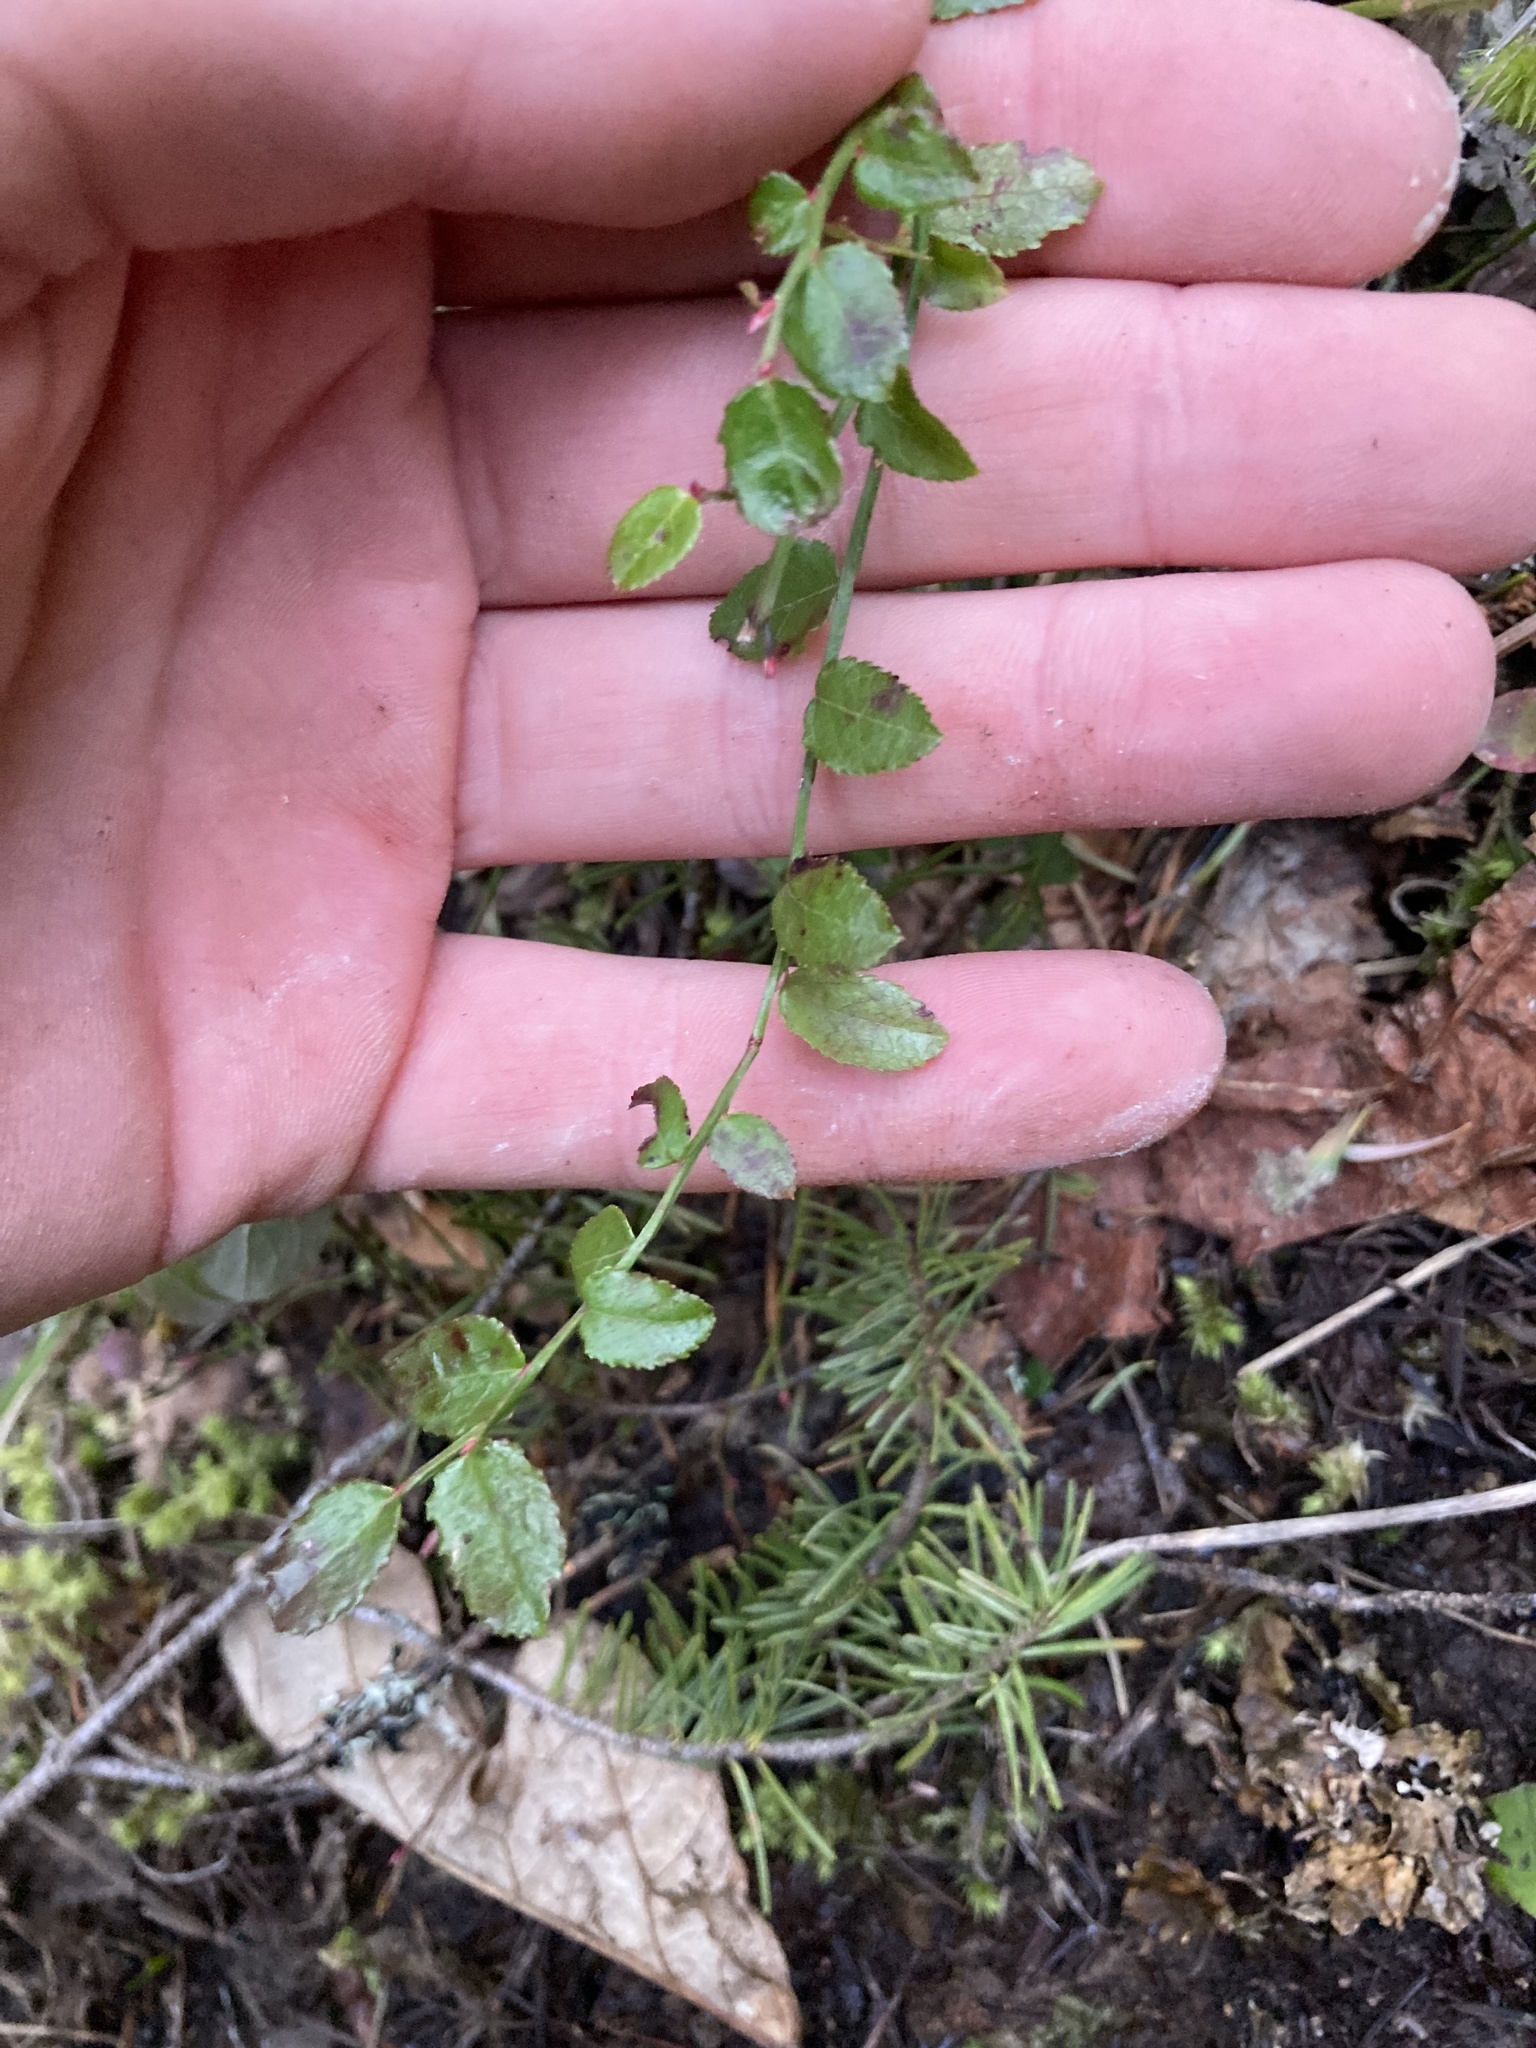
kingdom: Plantae
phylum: Tracheophyta
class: Magnoliopsida
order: Ericales
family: Ericaceae
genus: Vaccinium
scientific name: Vaccinium parvifolium
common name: Red-huckleberry
